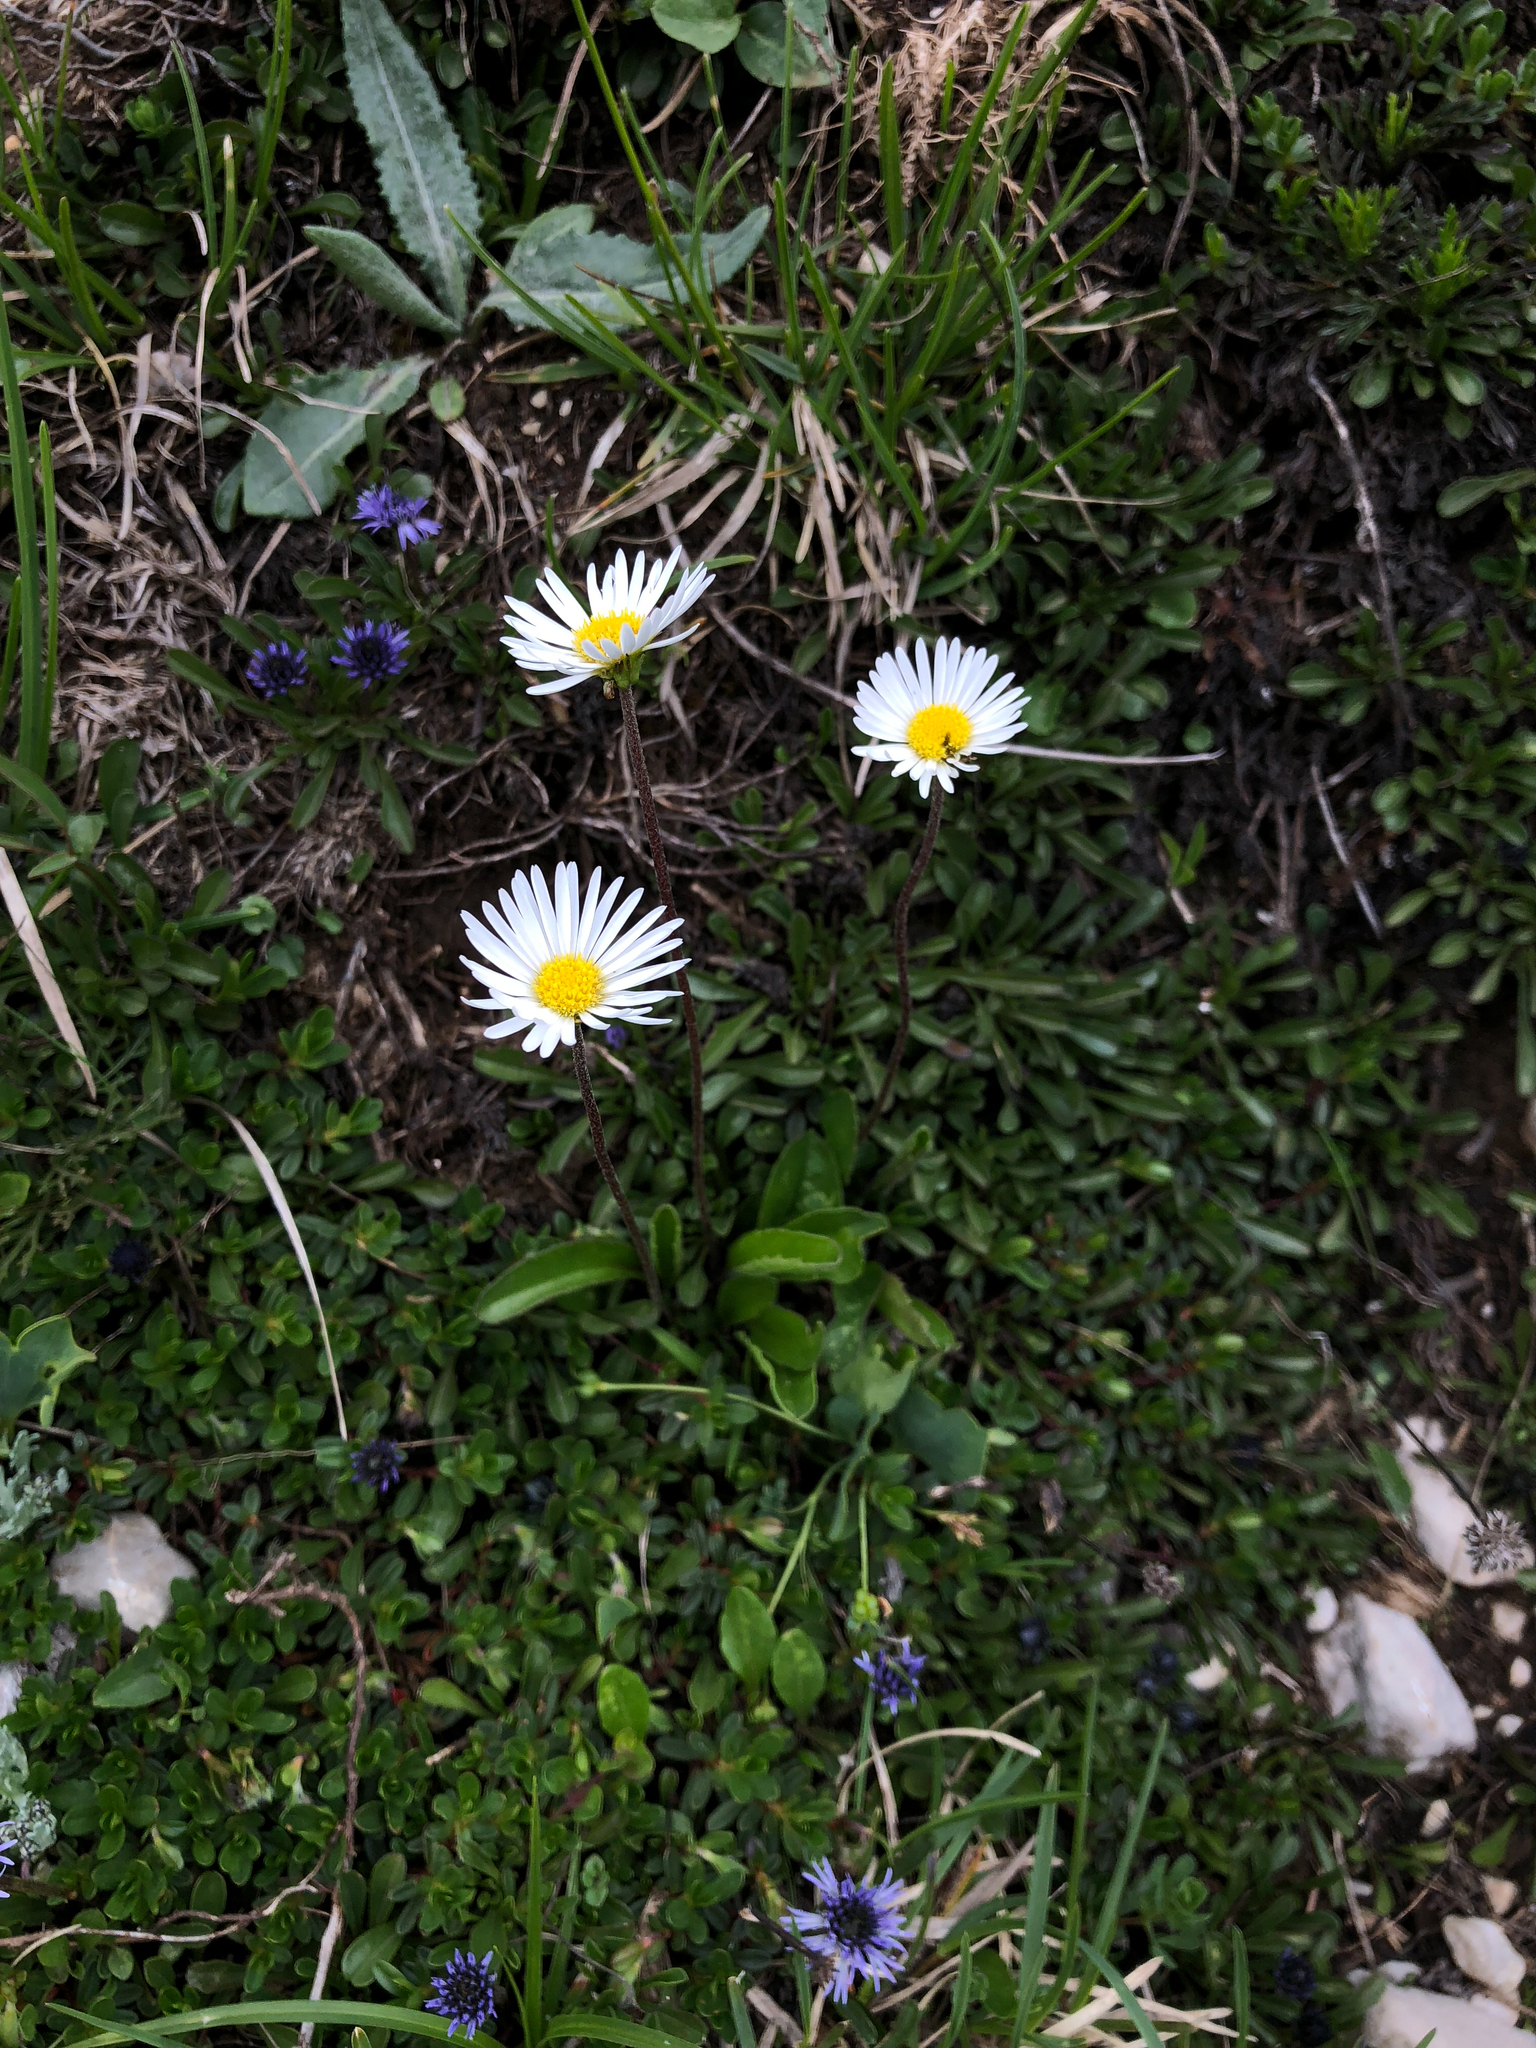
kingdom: Plantae
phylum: Tracheophyta
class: Magnoliopsida
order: Asterales
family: Asteraceae
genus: Bellis
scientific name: Bellis perennis
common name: Lawndaisy
